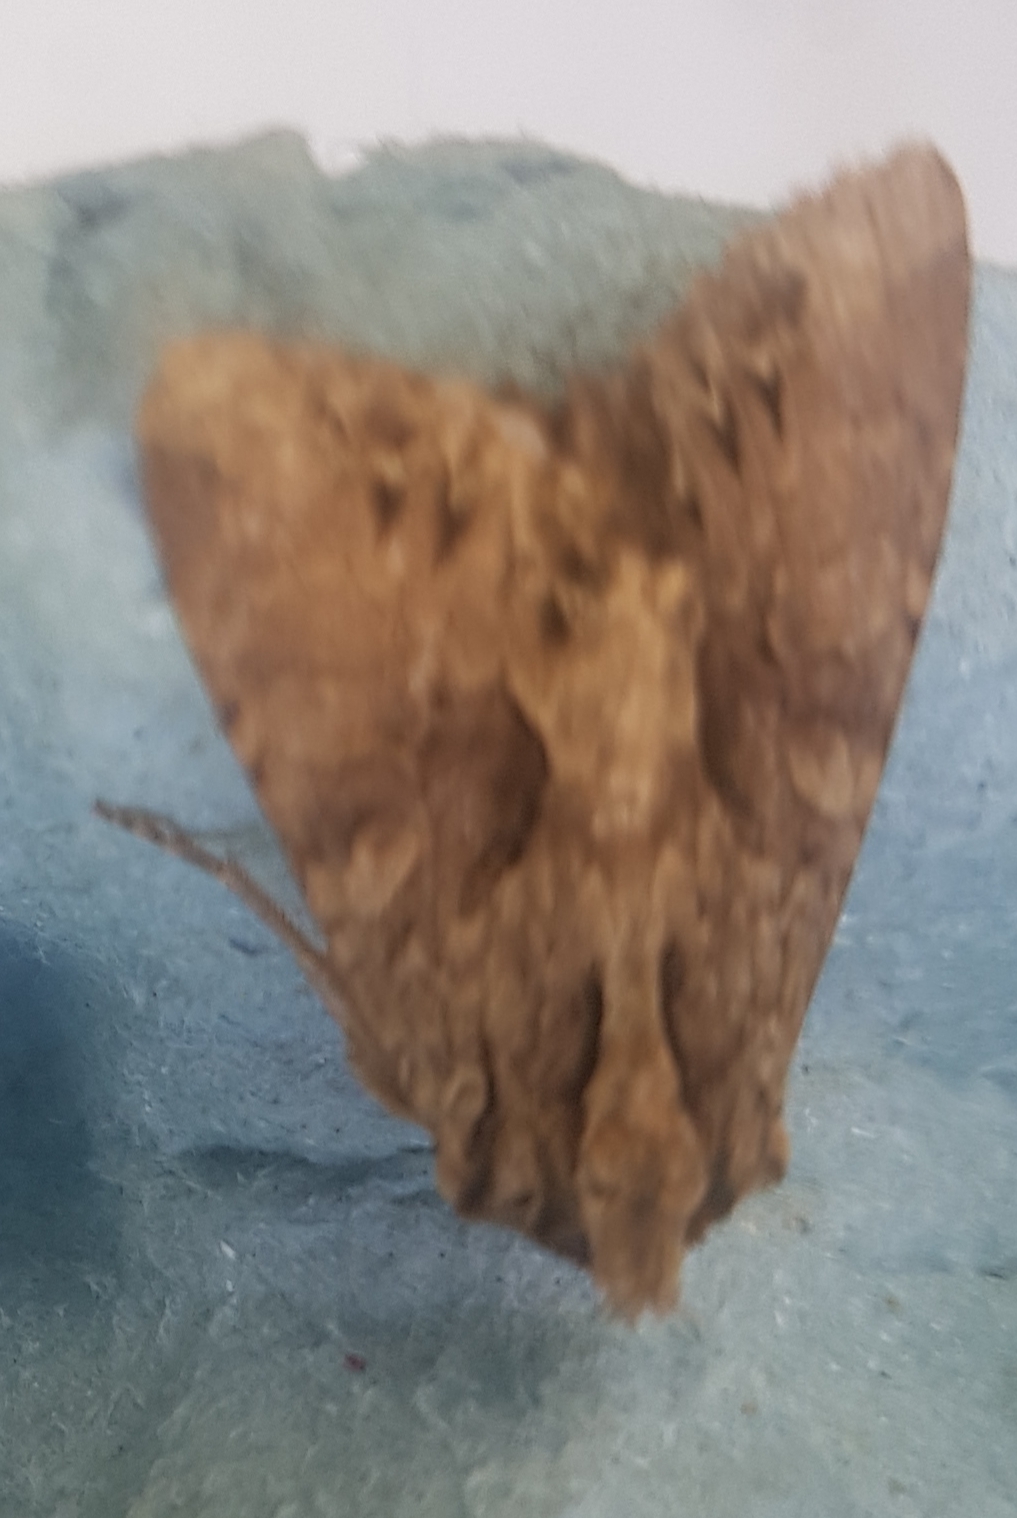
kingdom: Animalia
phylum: Arthropoda
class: Insecta
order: Lepidoptera
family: Noctuidae
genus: Apamea
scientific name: Apamea monoglypha
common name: Dark arches
